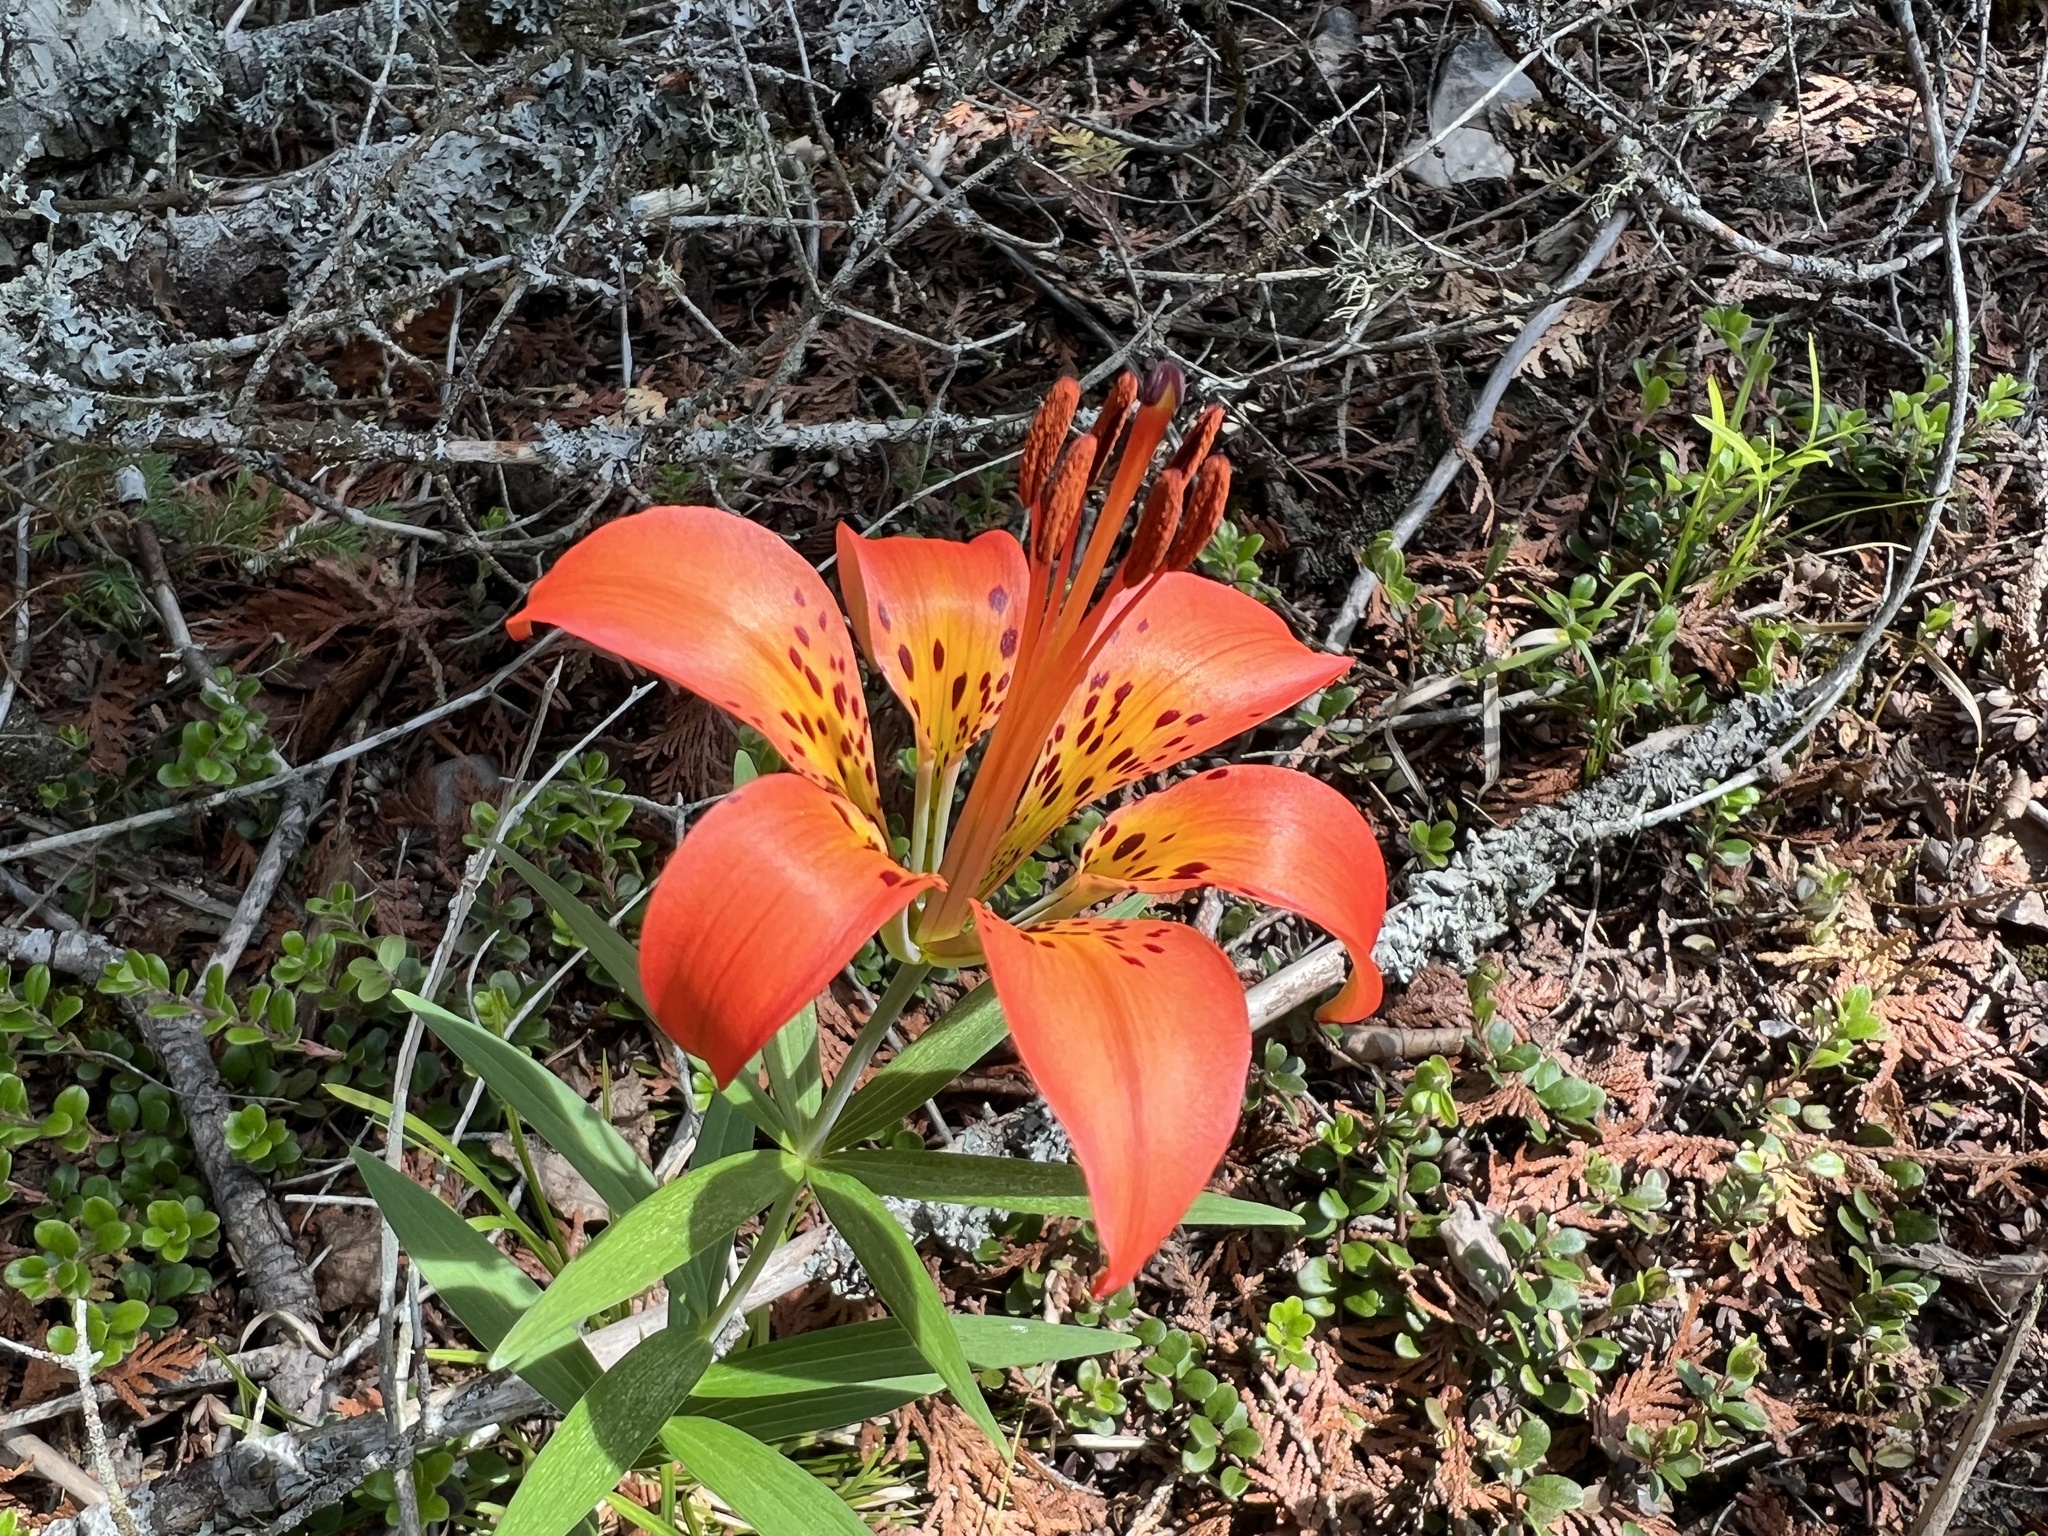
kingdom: Plantae
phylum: Tracheophyta
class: Liliopsida
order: Liliales
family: Liliaceae
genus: Lilium
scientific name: Lilium philadelphicum
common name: Red lily
